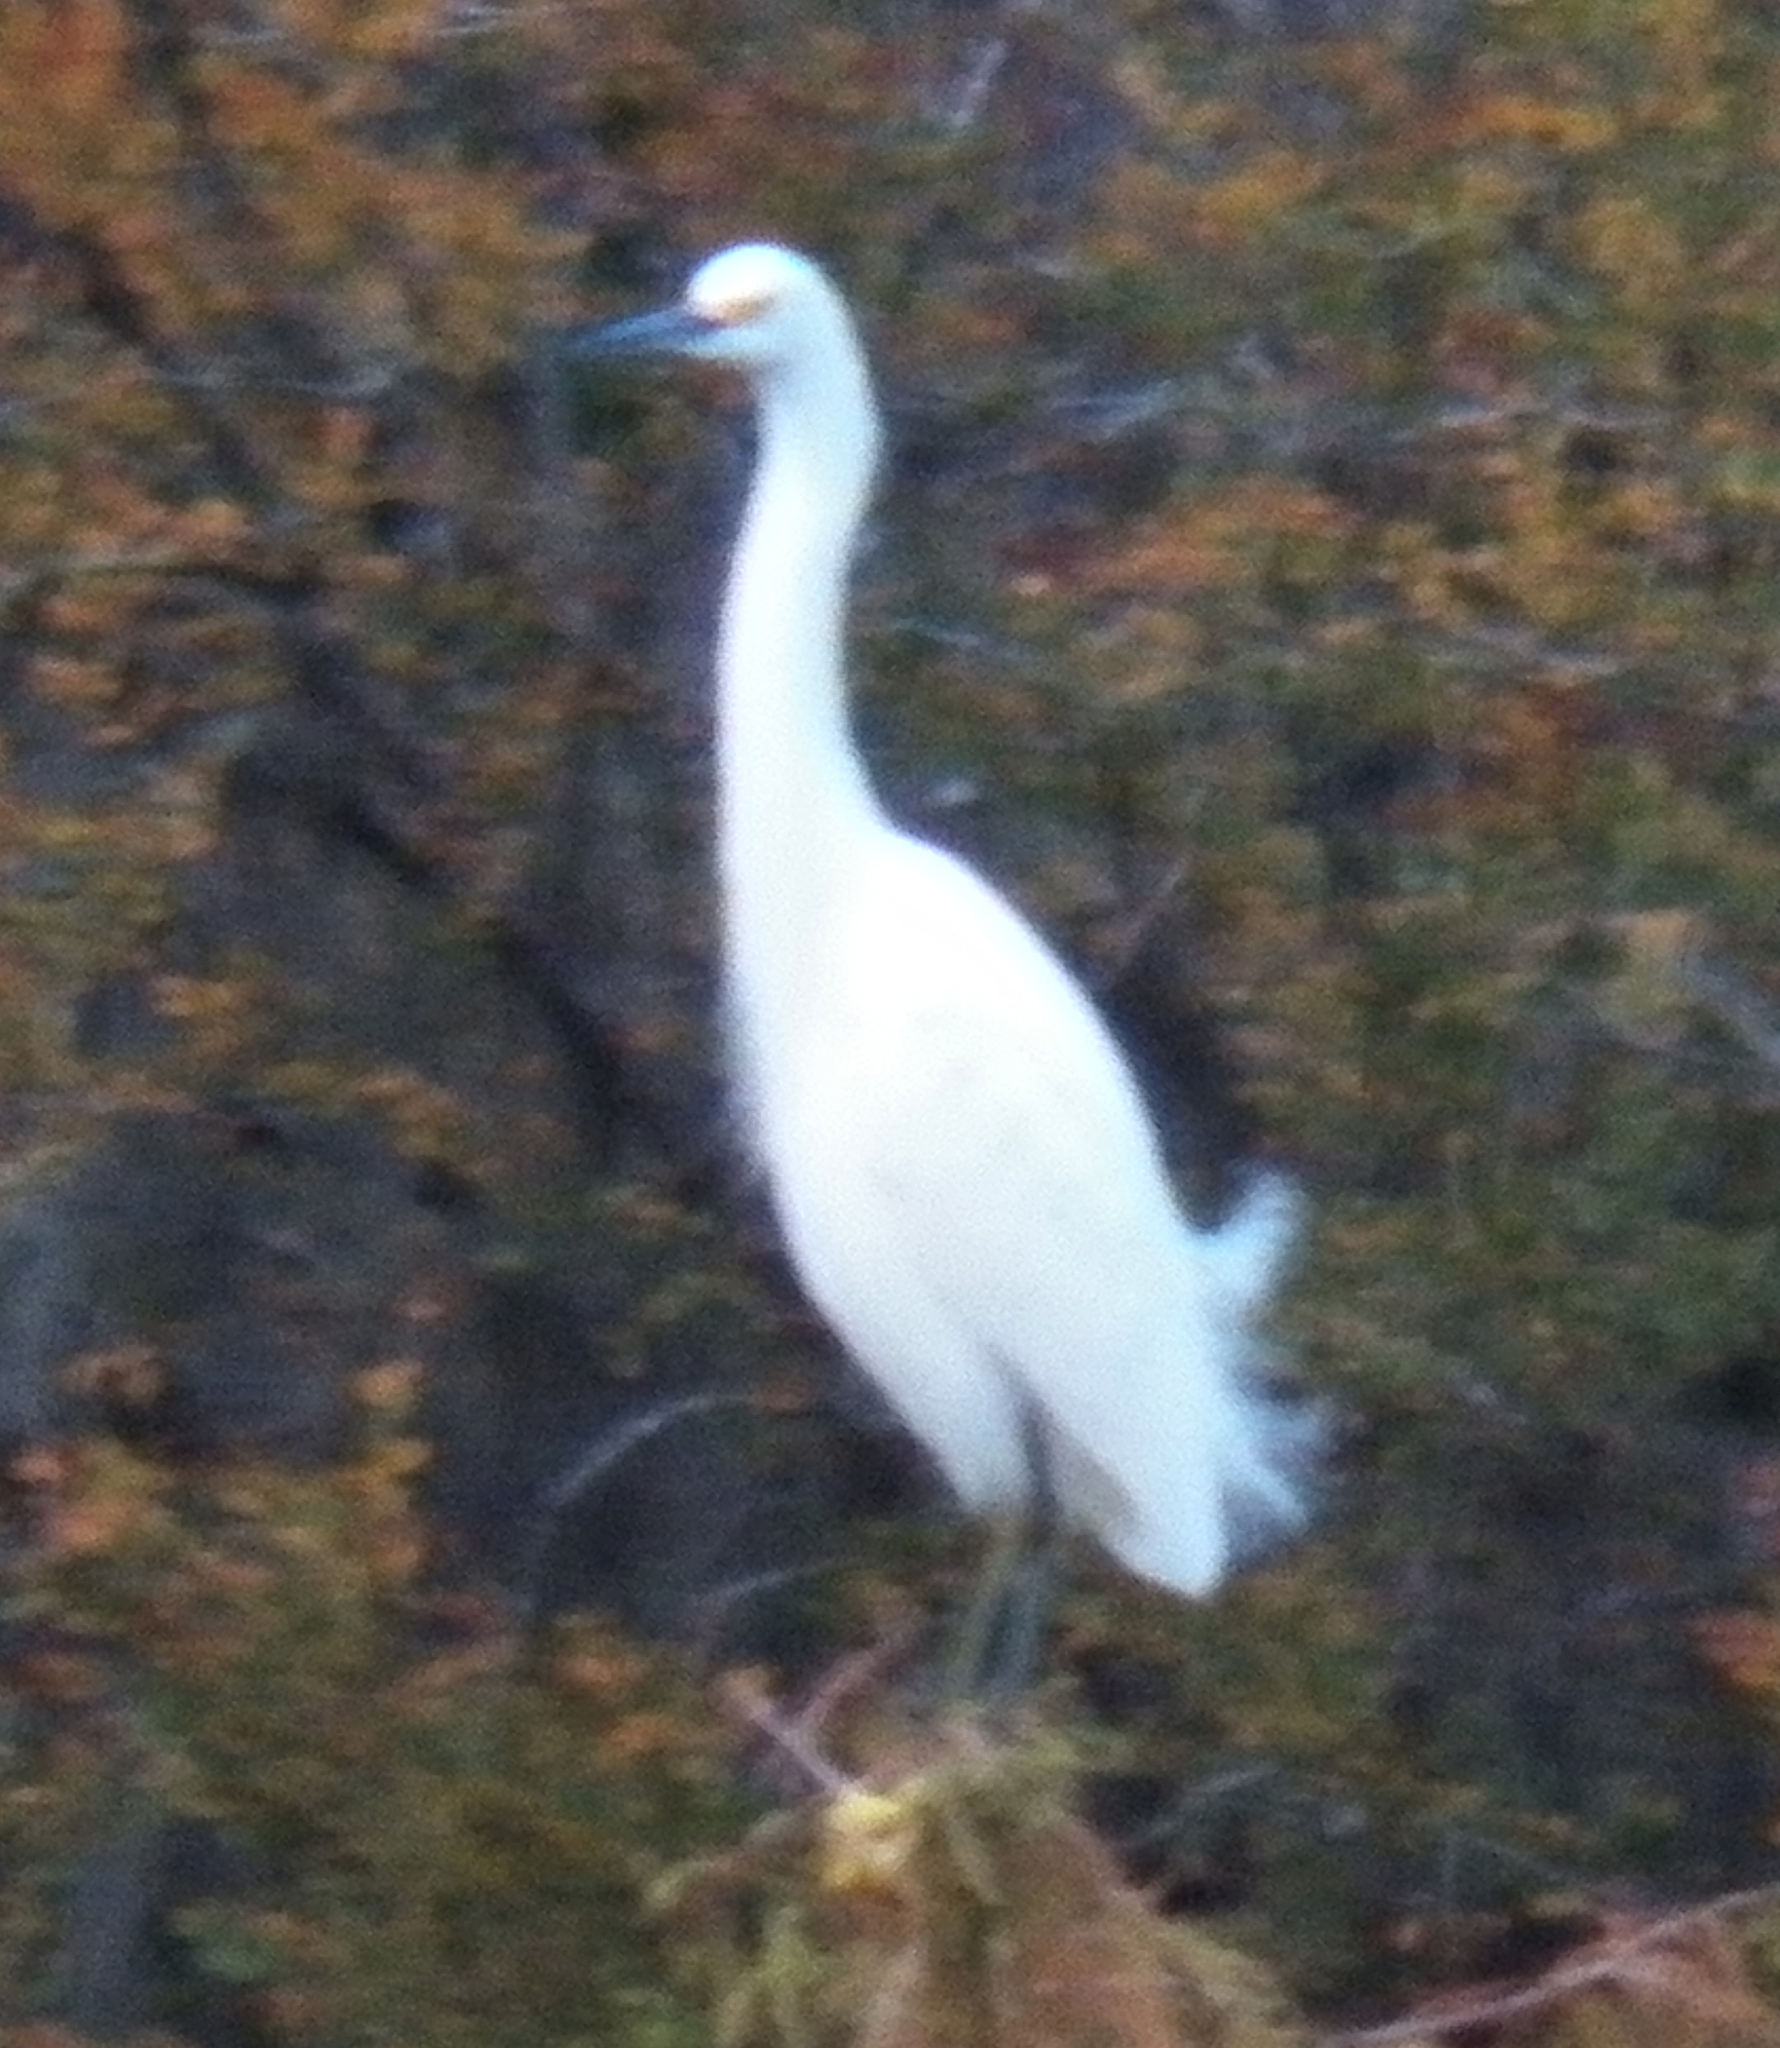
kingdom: Animalia
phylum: Chordata
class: Aves
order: Pelecaniformes
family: Ardeidae
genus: Egretta
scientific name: Egretta thula
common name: Snowy egret
